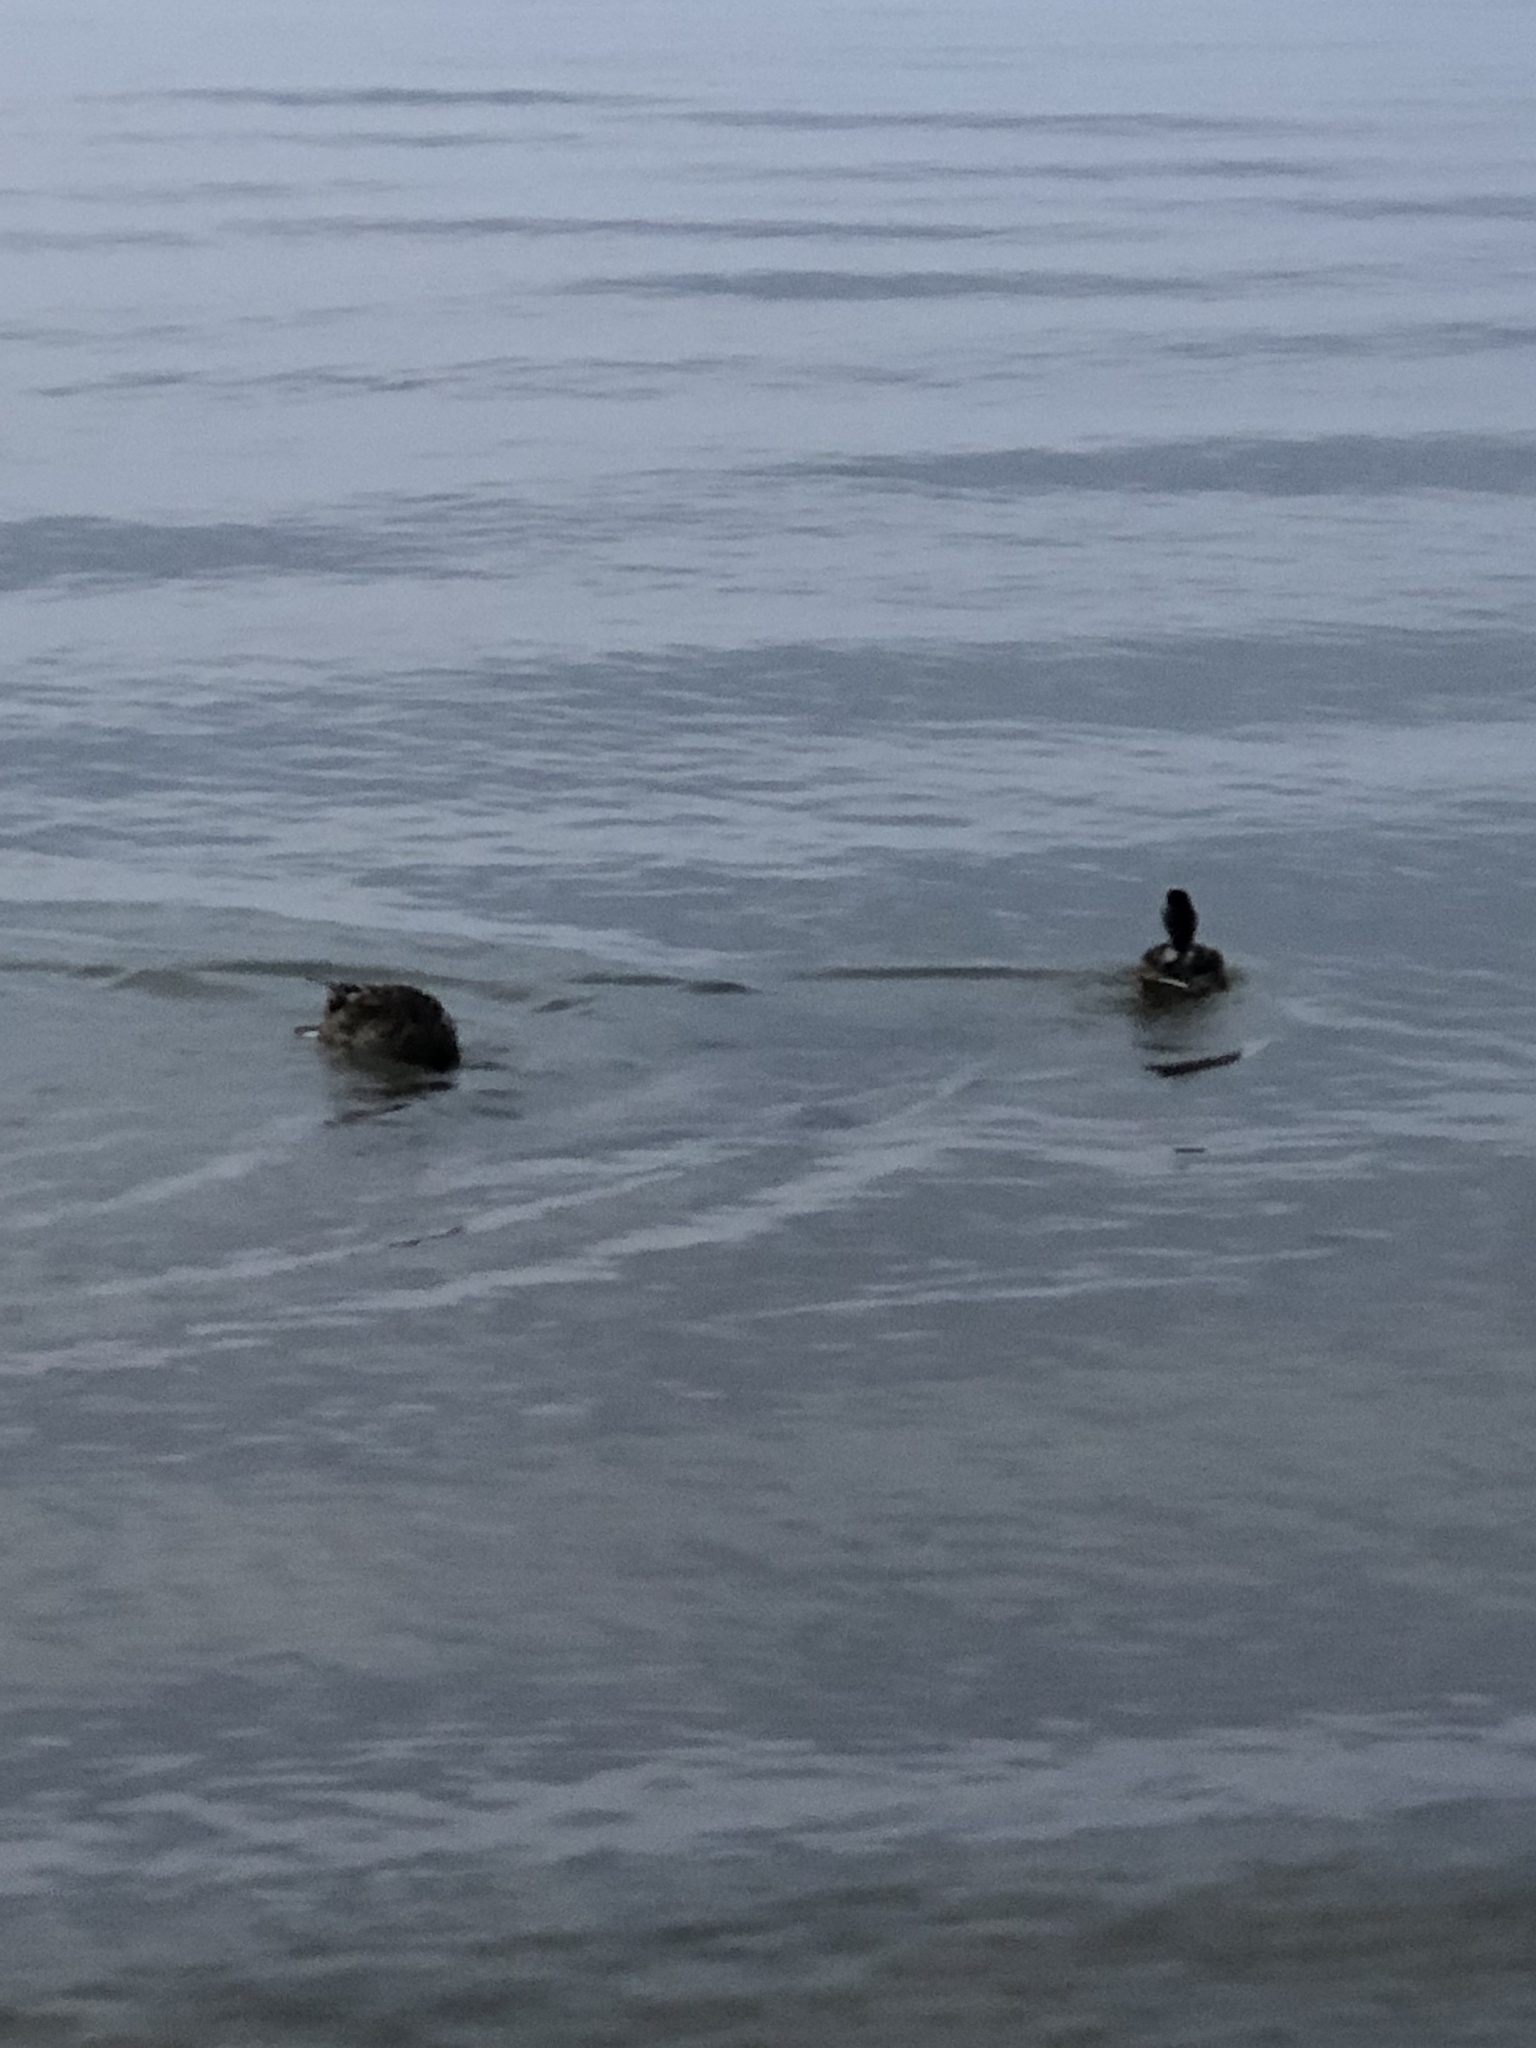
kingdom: Animalia
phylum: Chordata
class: Aves
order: Anseriformes
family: Anatidae
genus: Anas
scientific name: Anas platyrhynchos
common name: Mallard
